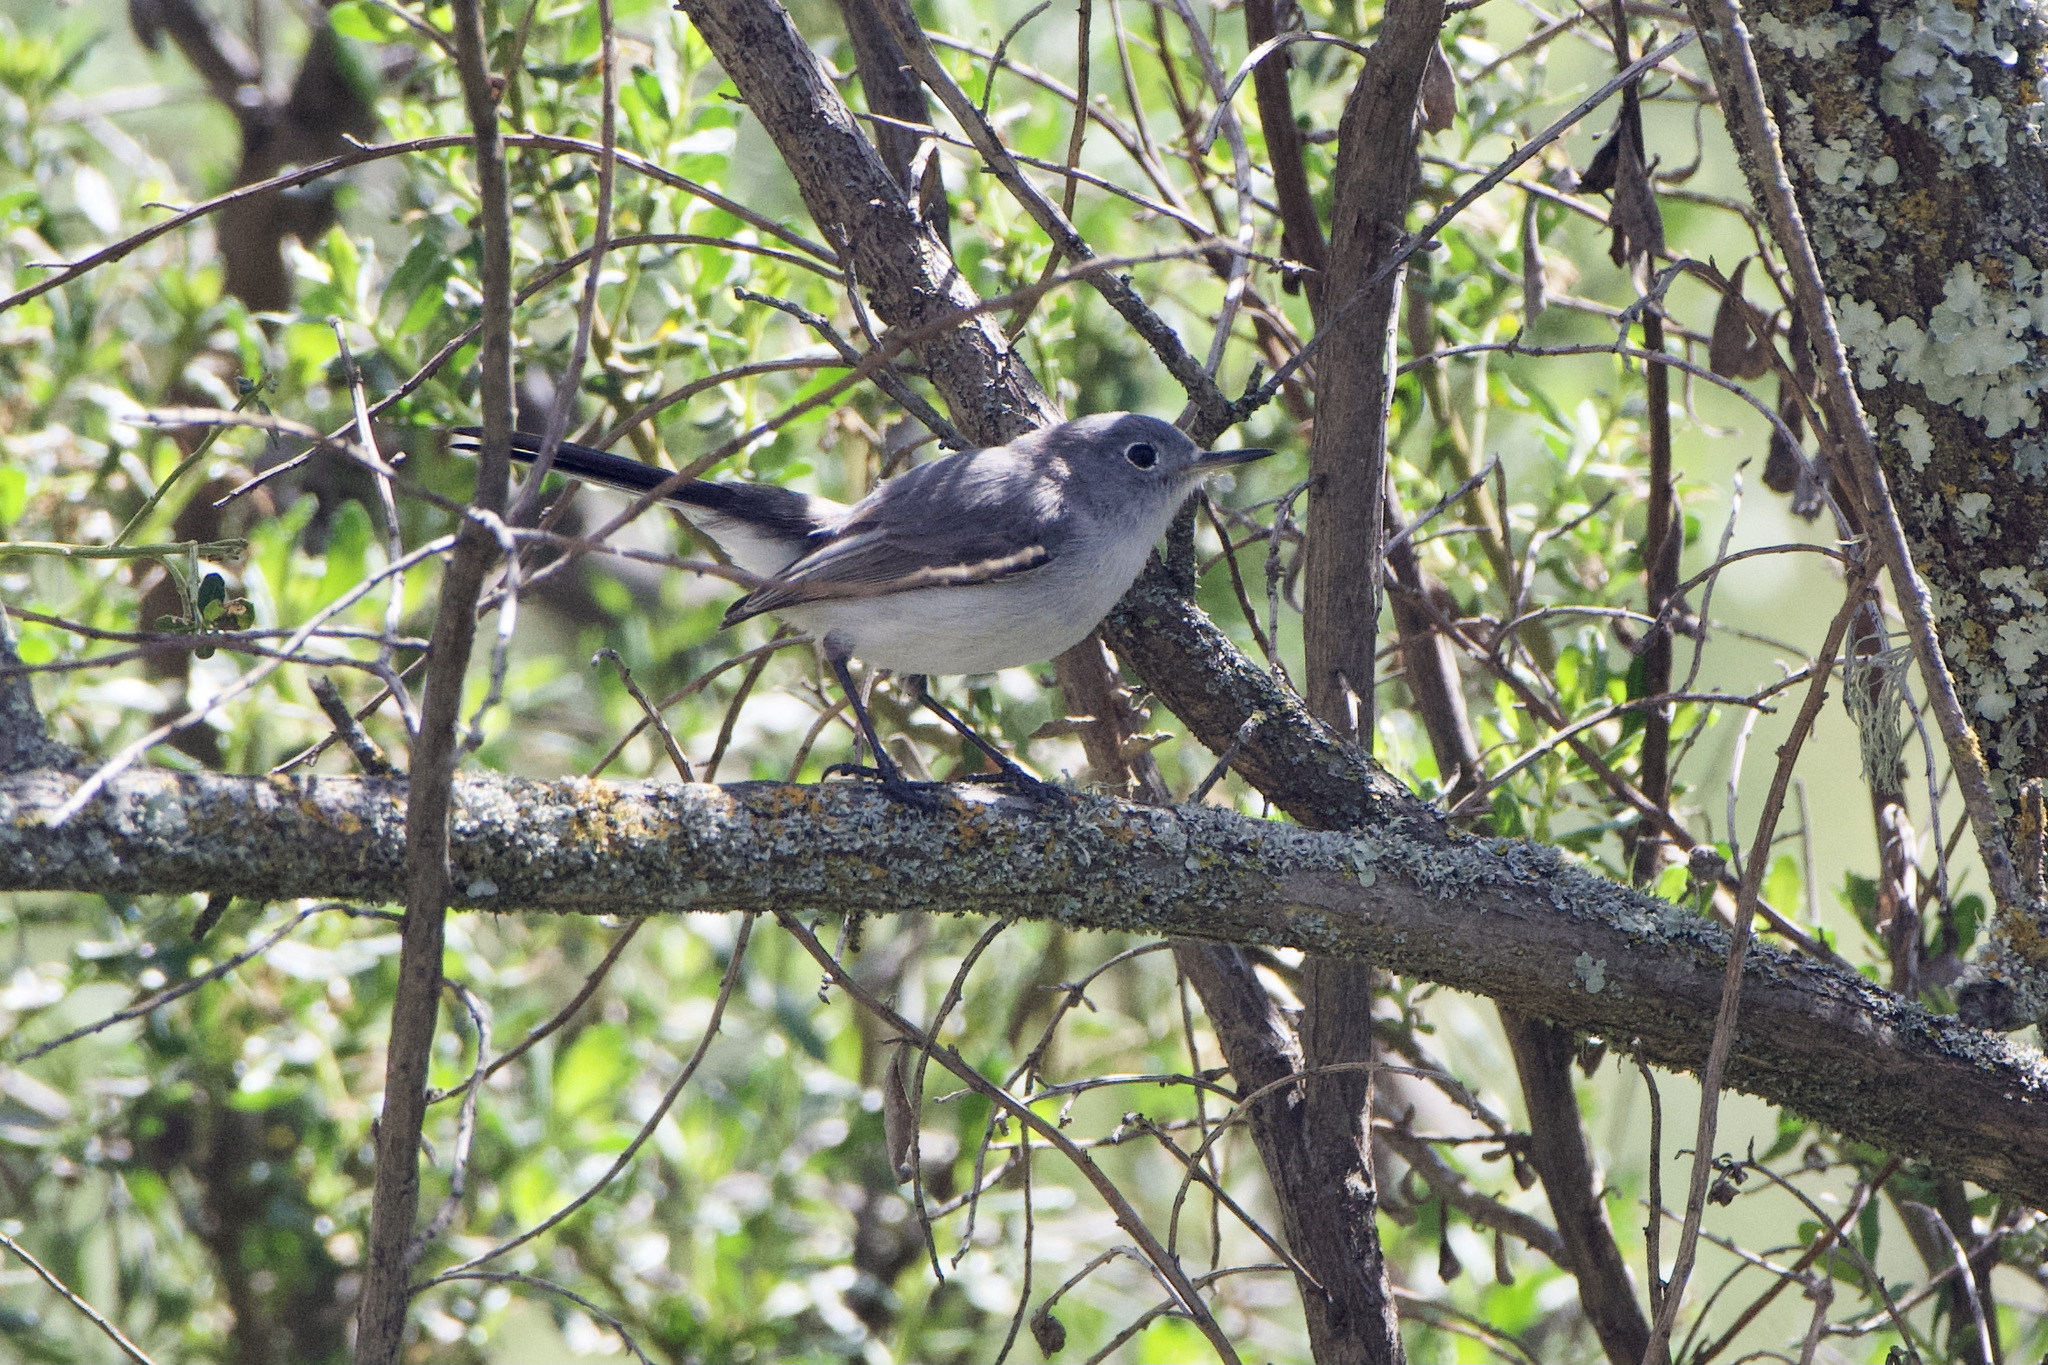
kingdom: Animalia
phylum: Chordata
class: Aves
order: Passeriformes
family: Polioptilidae
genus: Polioptila
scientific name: Polioptila caerulea
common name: Blue-gray gnatcatcher
